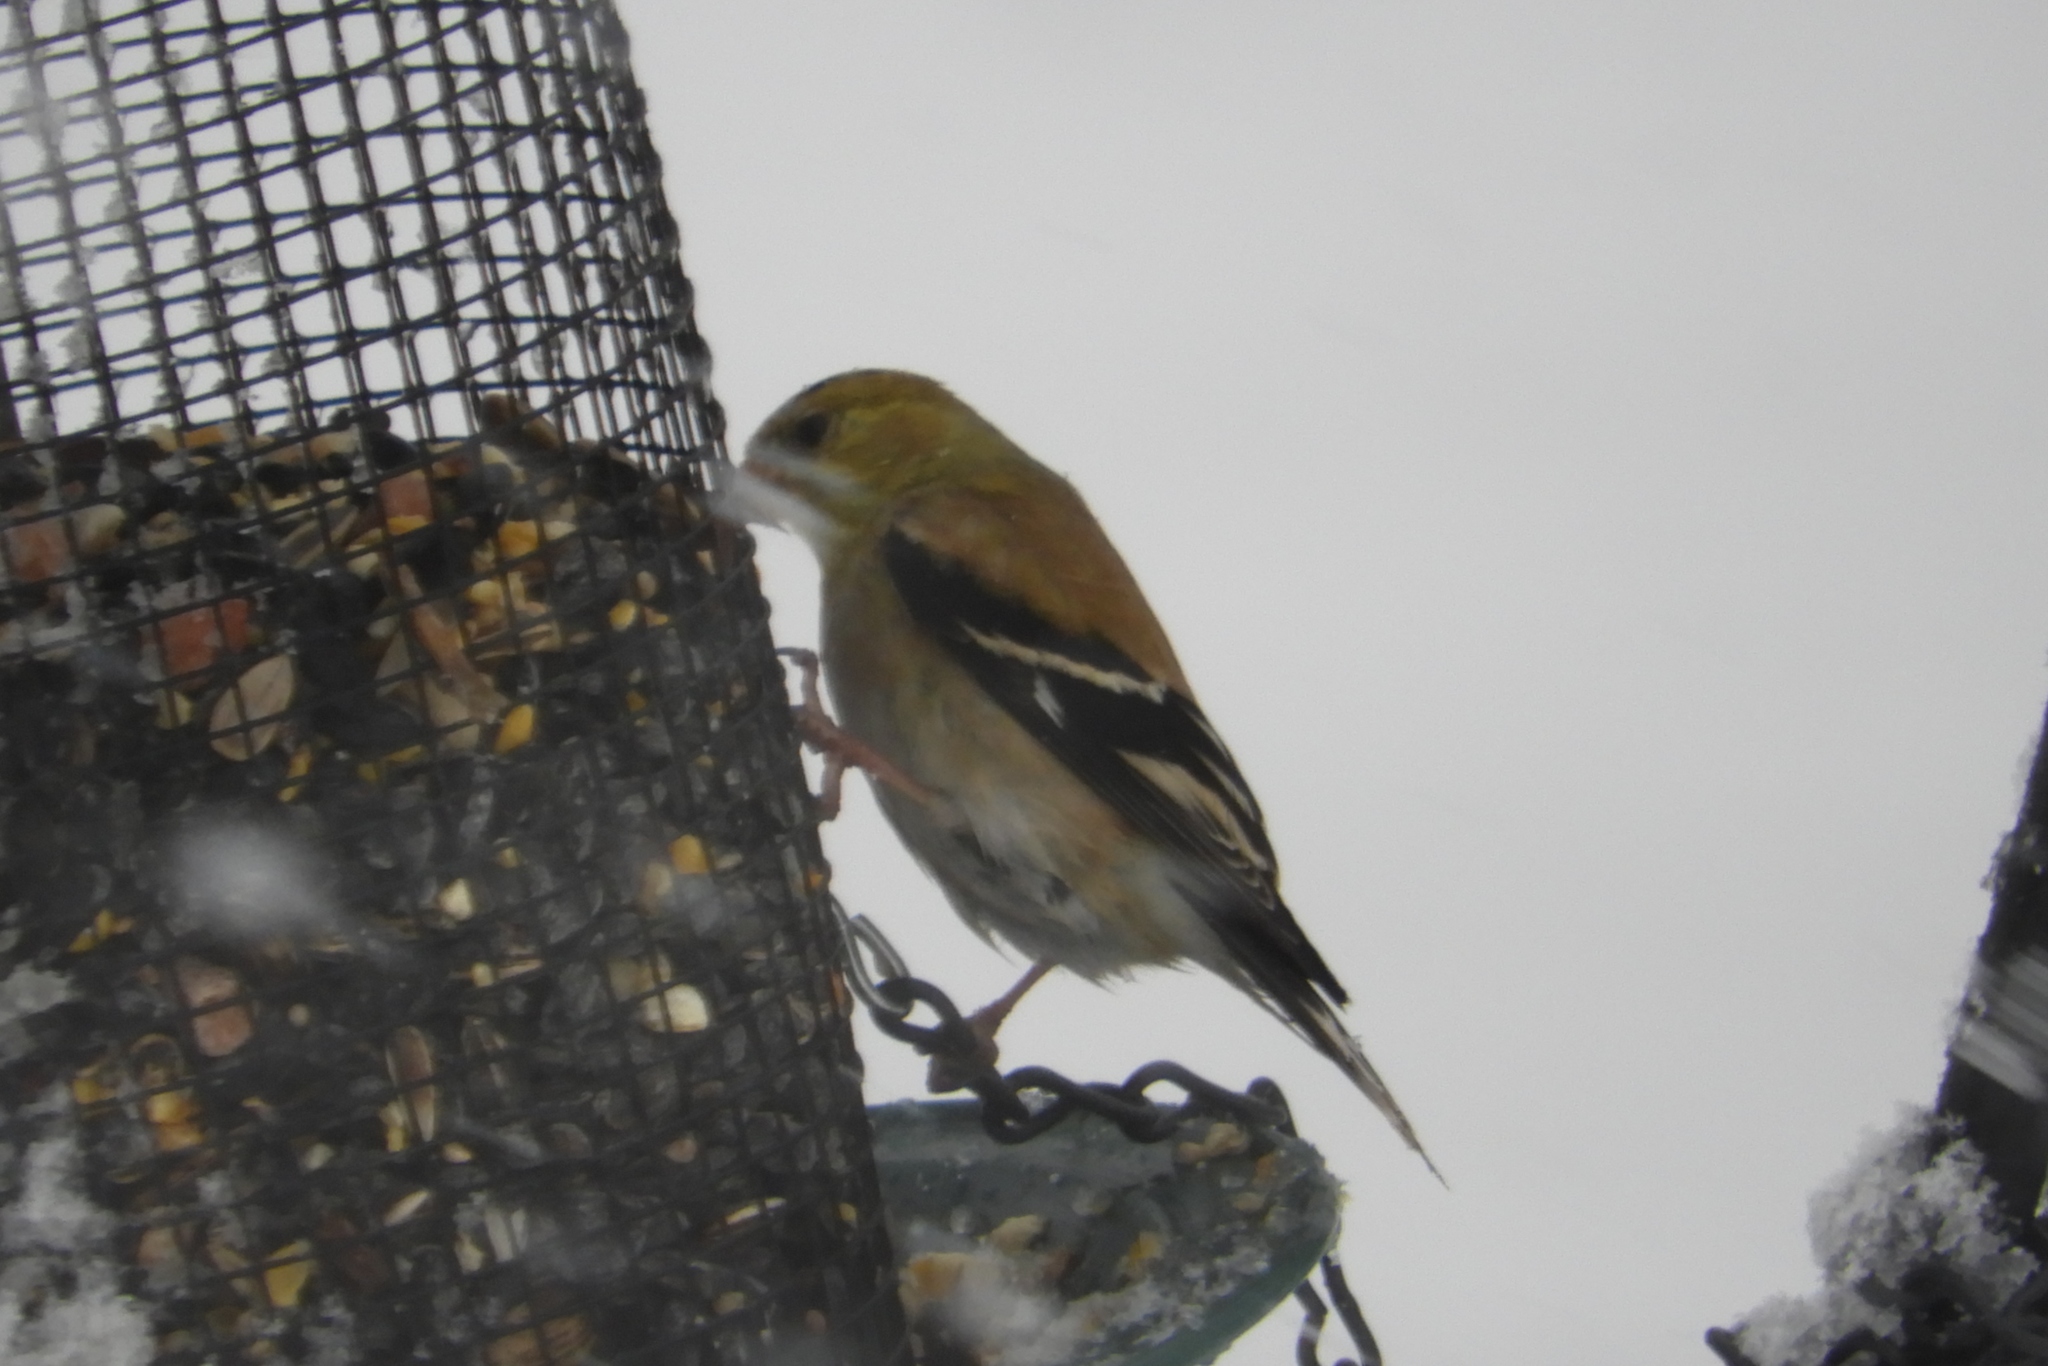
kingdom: Animalia
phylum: Chordata
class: Aves
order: Passeriformes
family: Fringillidae
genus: Spinus
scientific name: Spinus tristis
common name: American goldfinch
